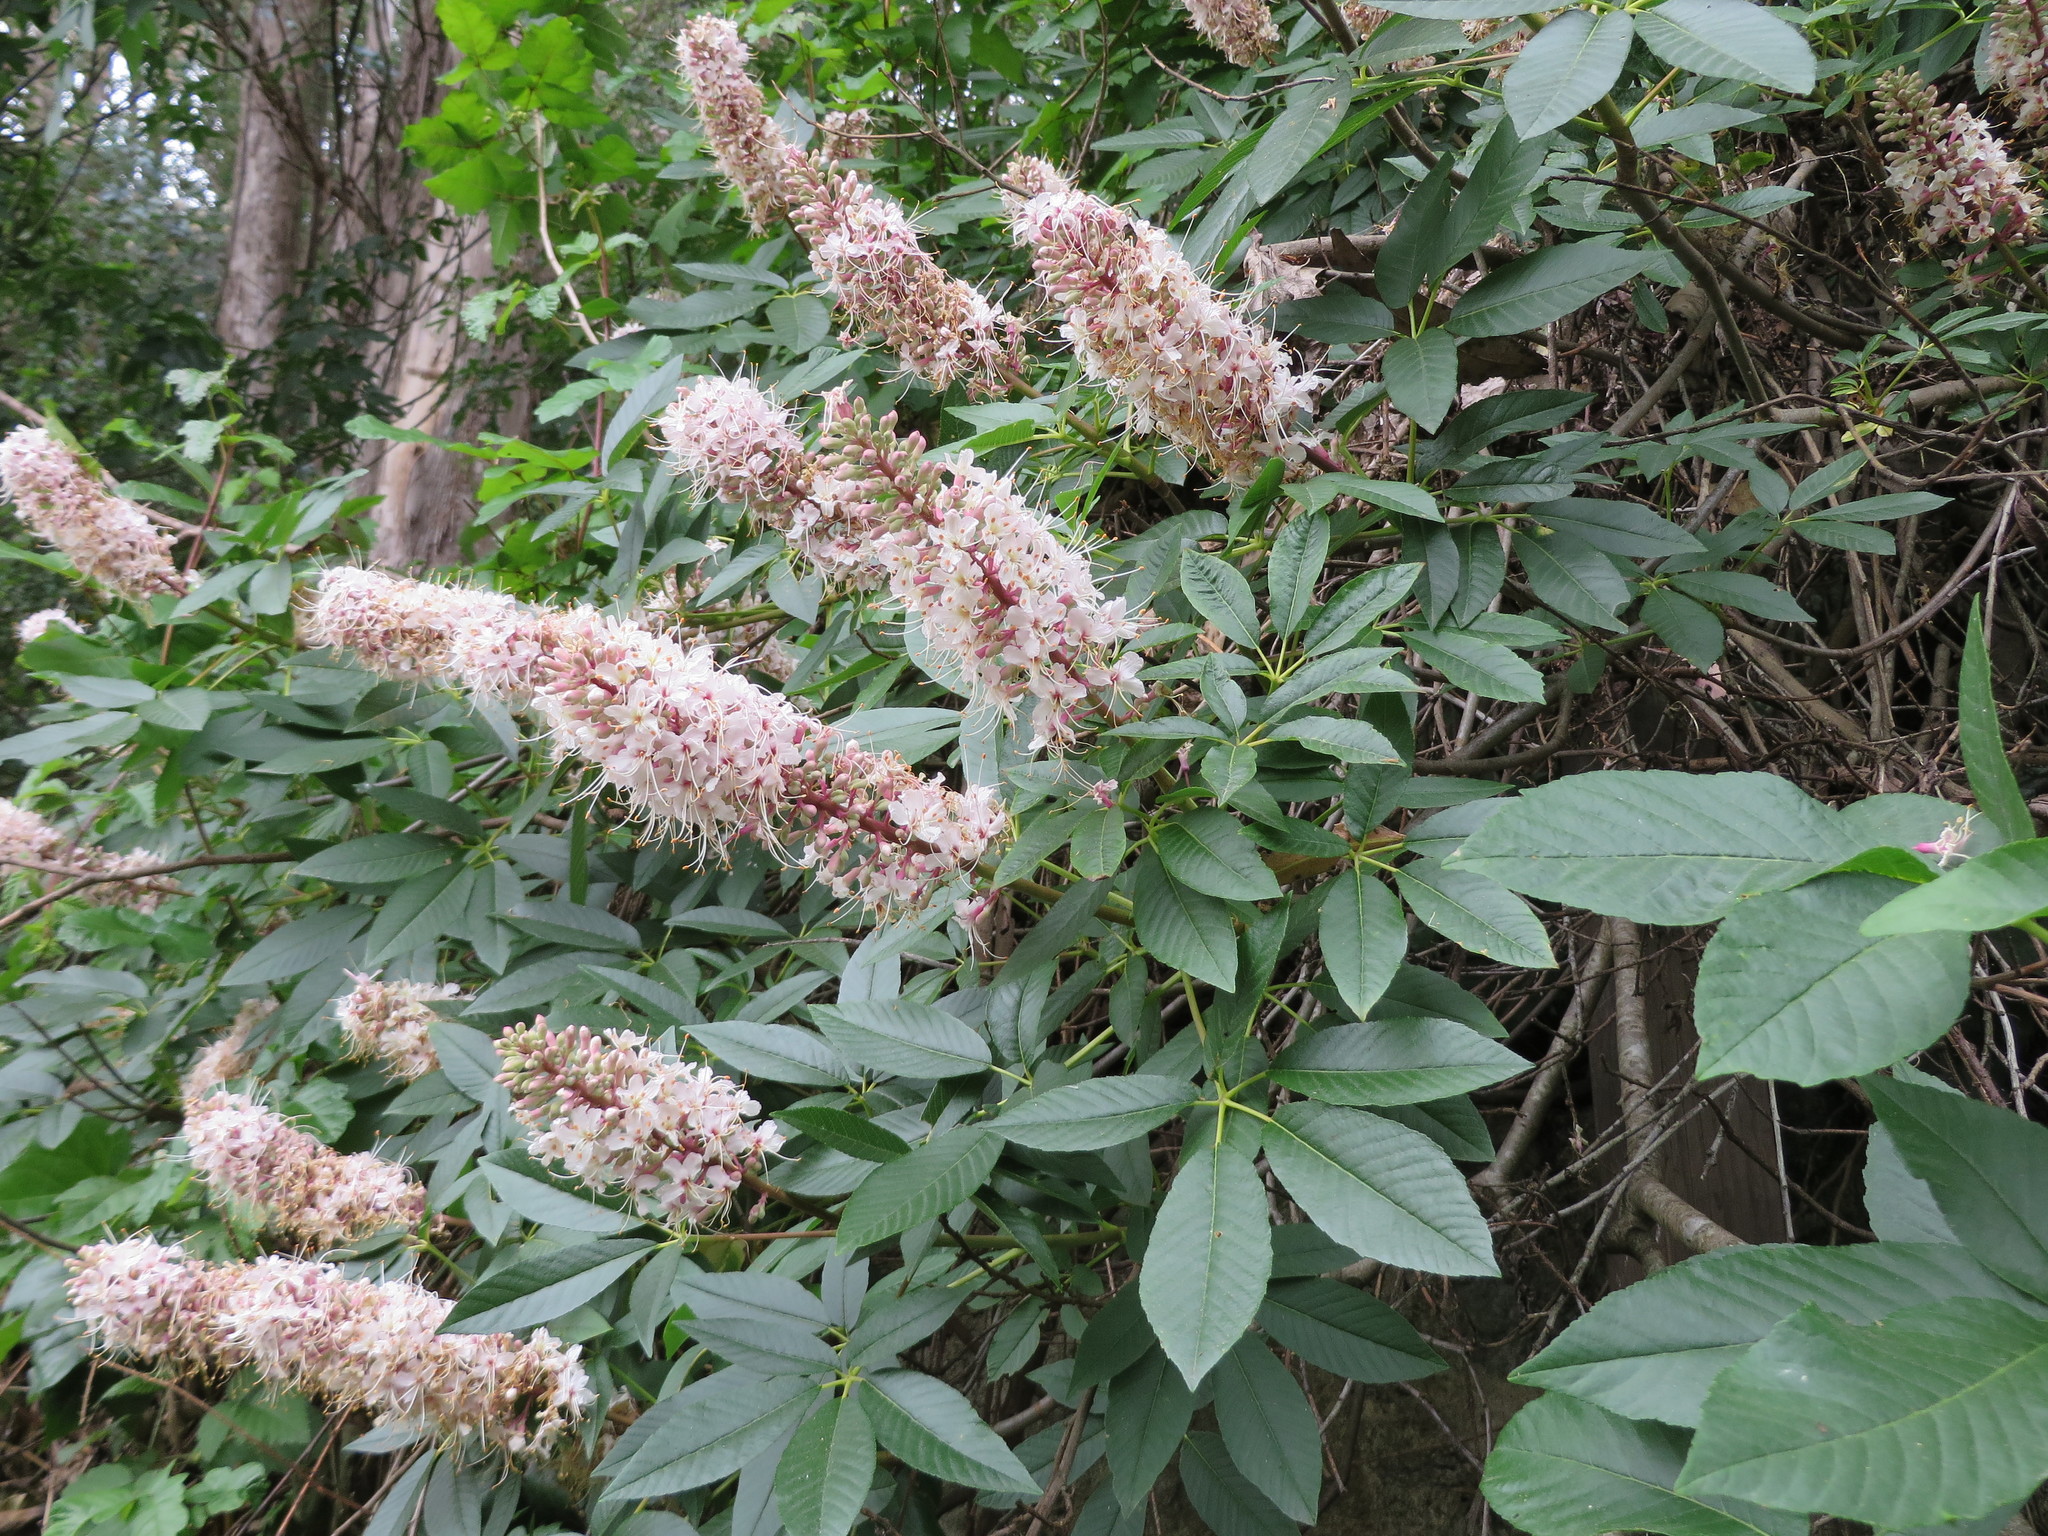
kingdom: Plantae
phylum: Tracheophyta
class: Magnoliopsida
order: Sapindales
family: Sapindaceae
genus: Aesculus
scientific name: Aesculus californica
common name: California buckeye
